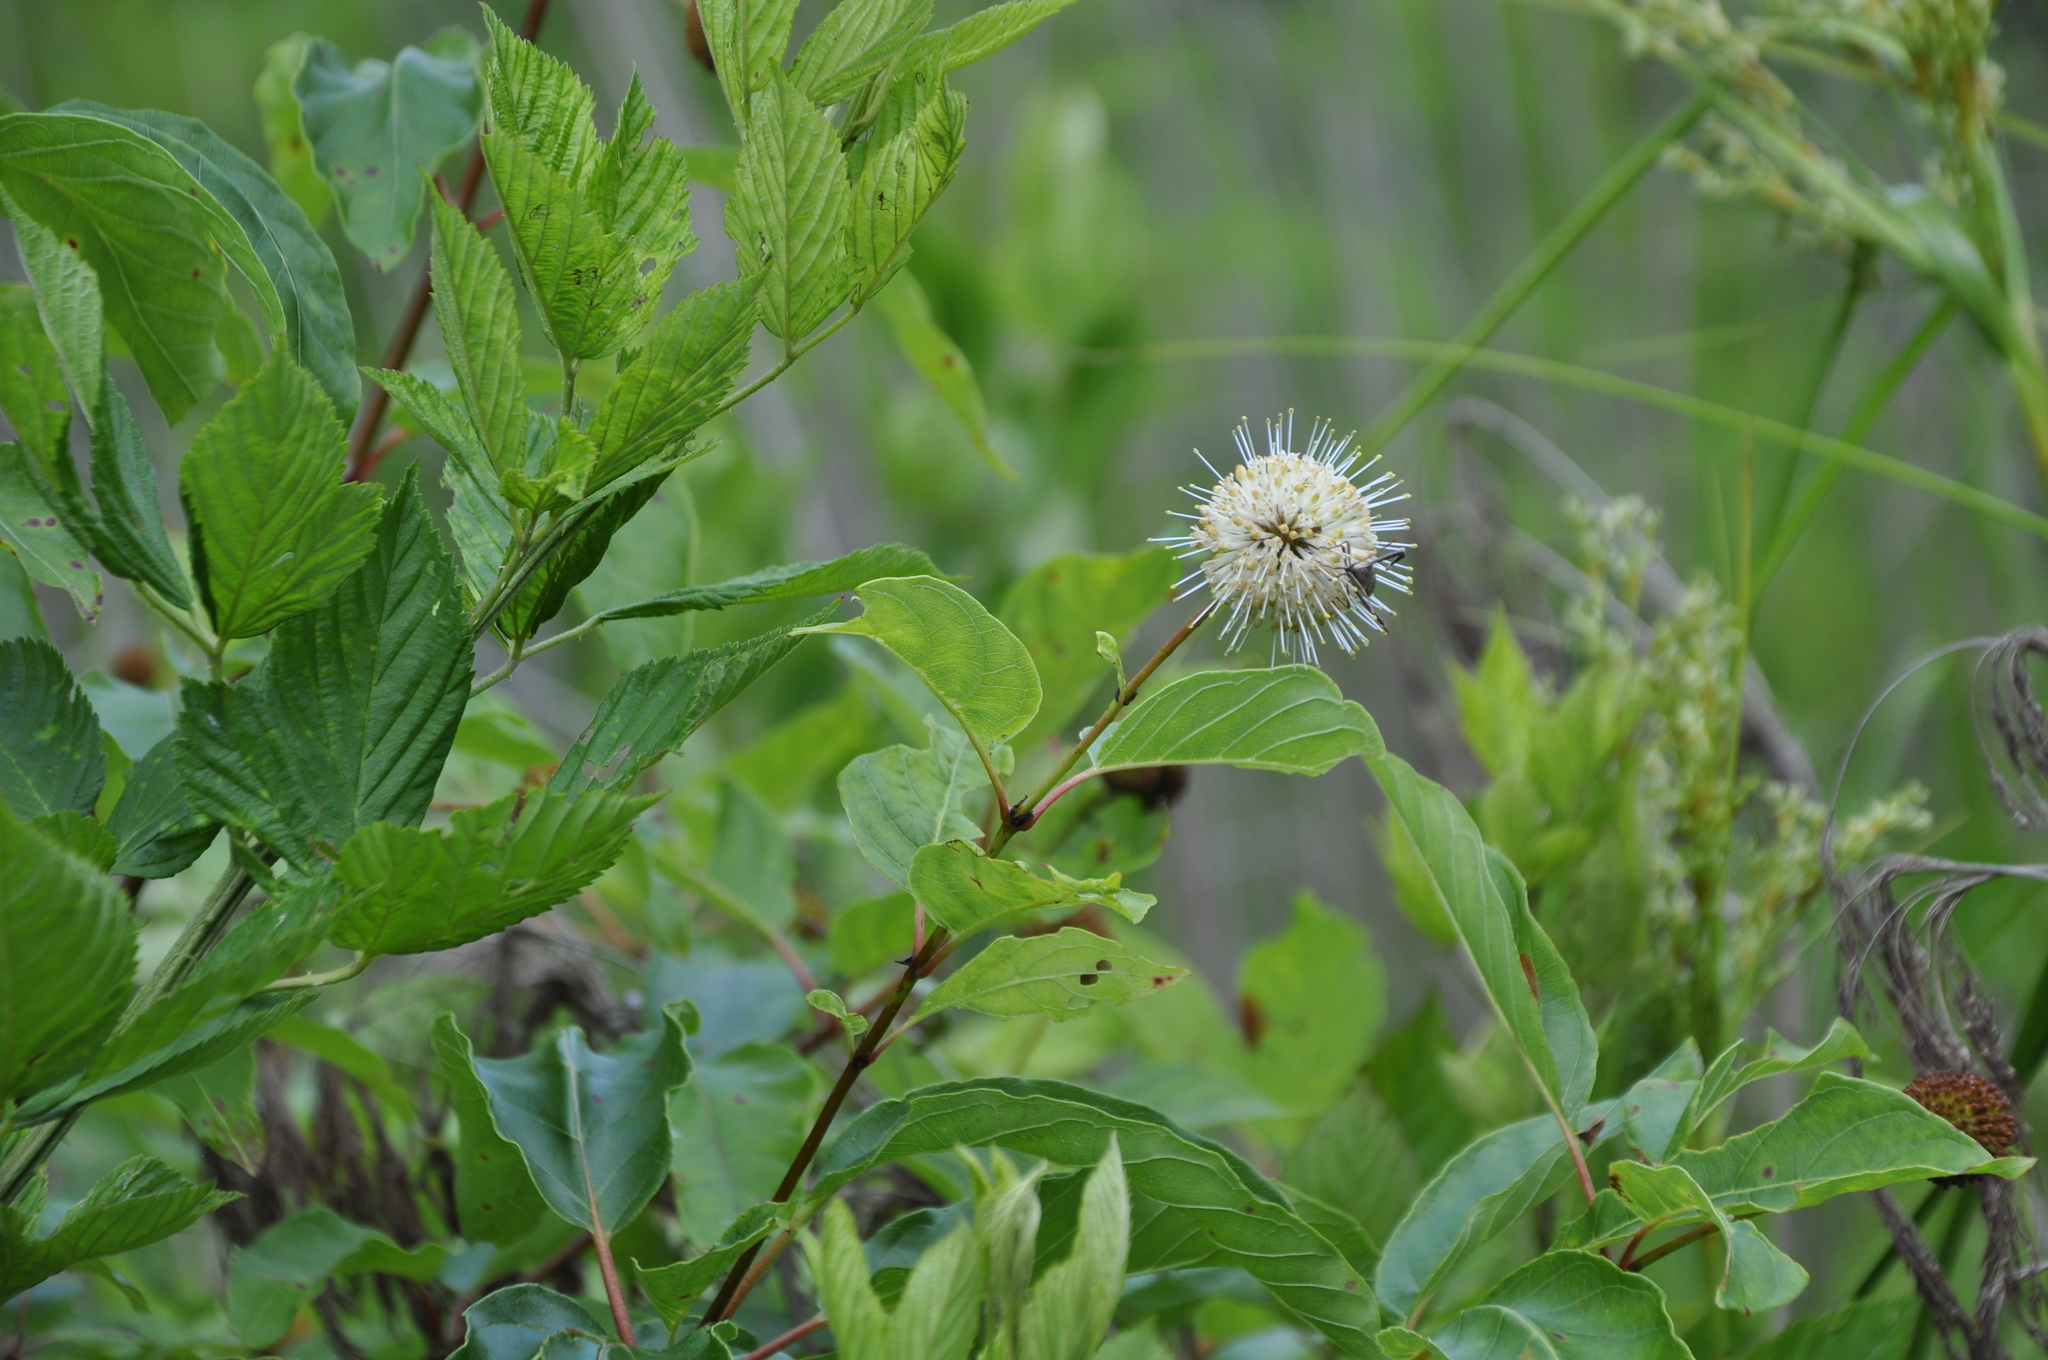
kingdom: Plantae
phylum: Tracheophyta
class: Magnoliopsida
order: Gentianales
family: Rubiaceae
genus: Cephalanthus
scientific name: Cephalanthus occidentalis
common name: Button-willow
